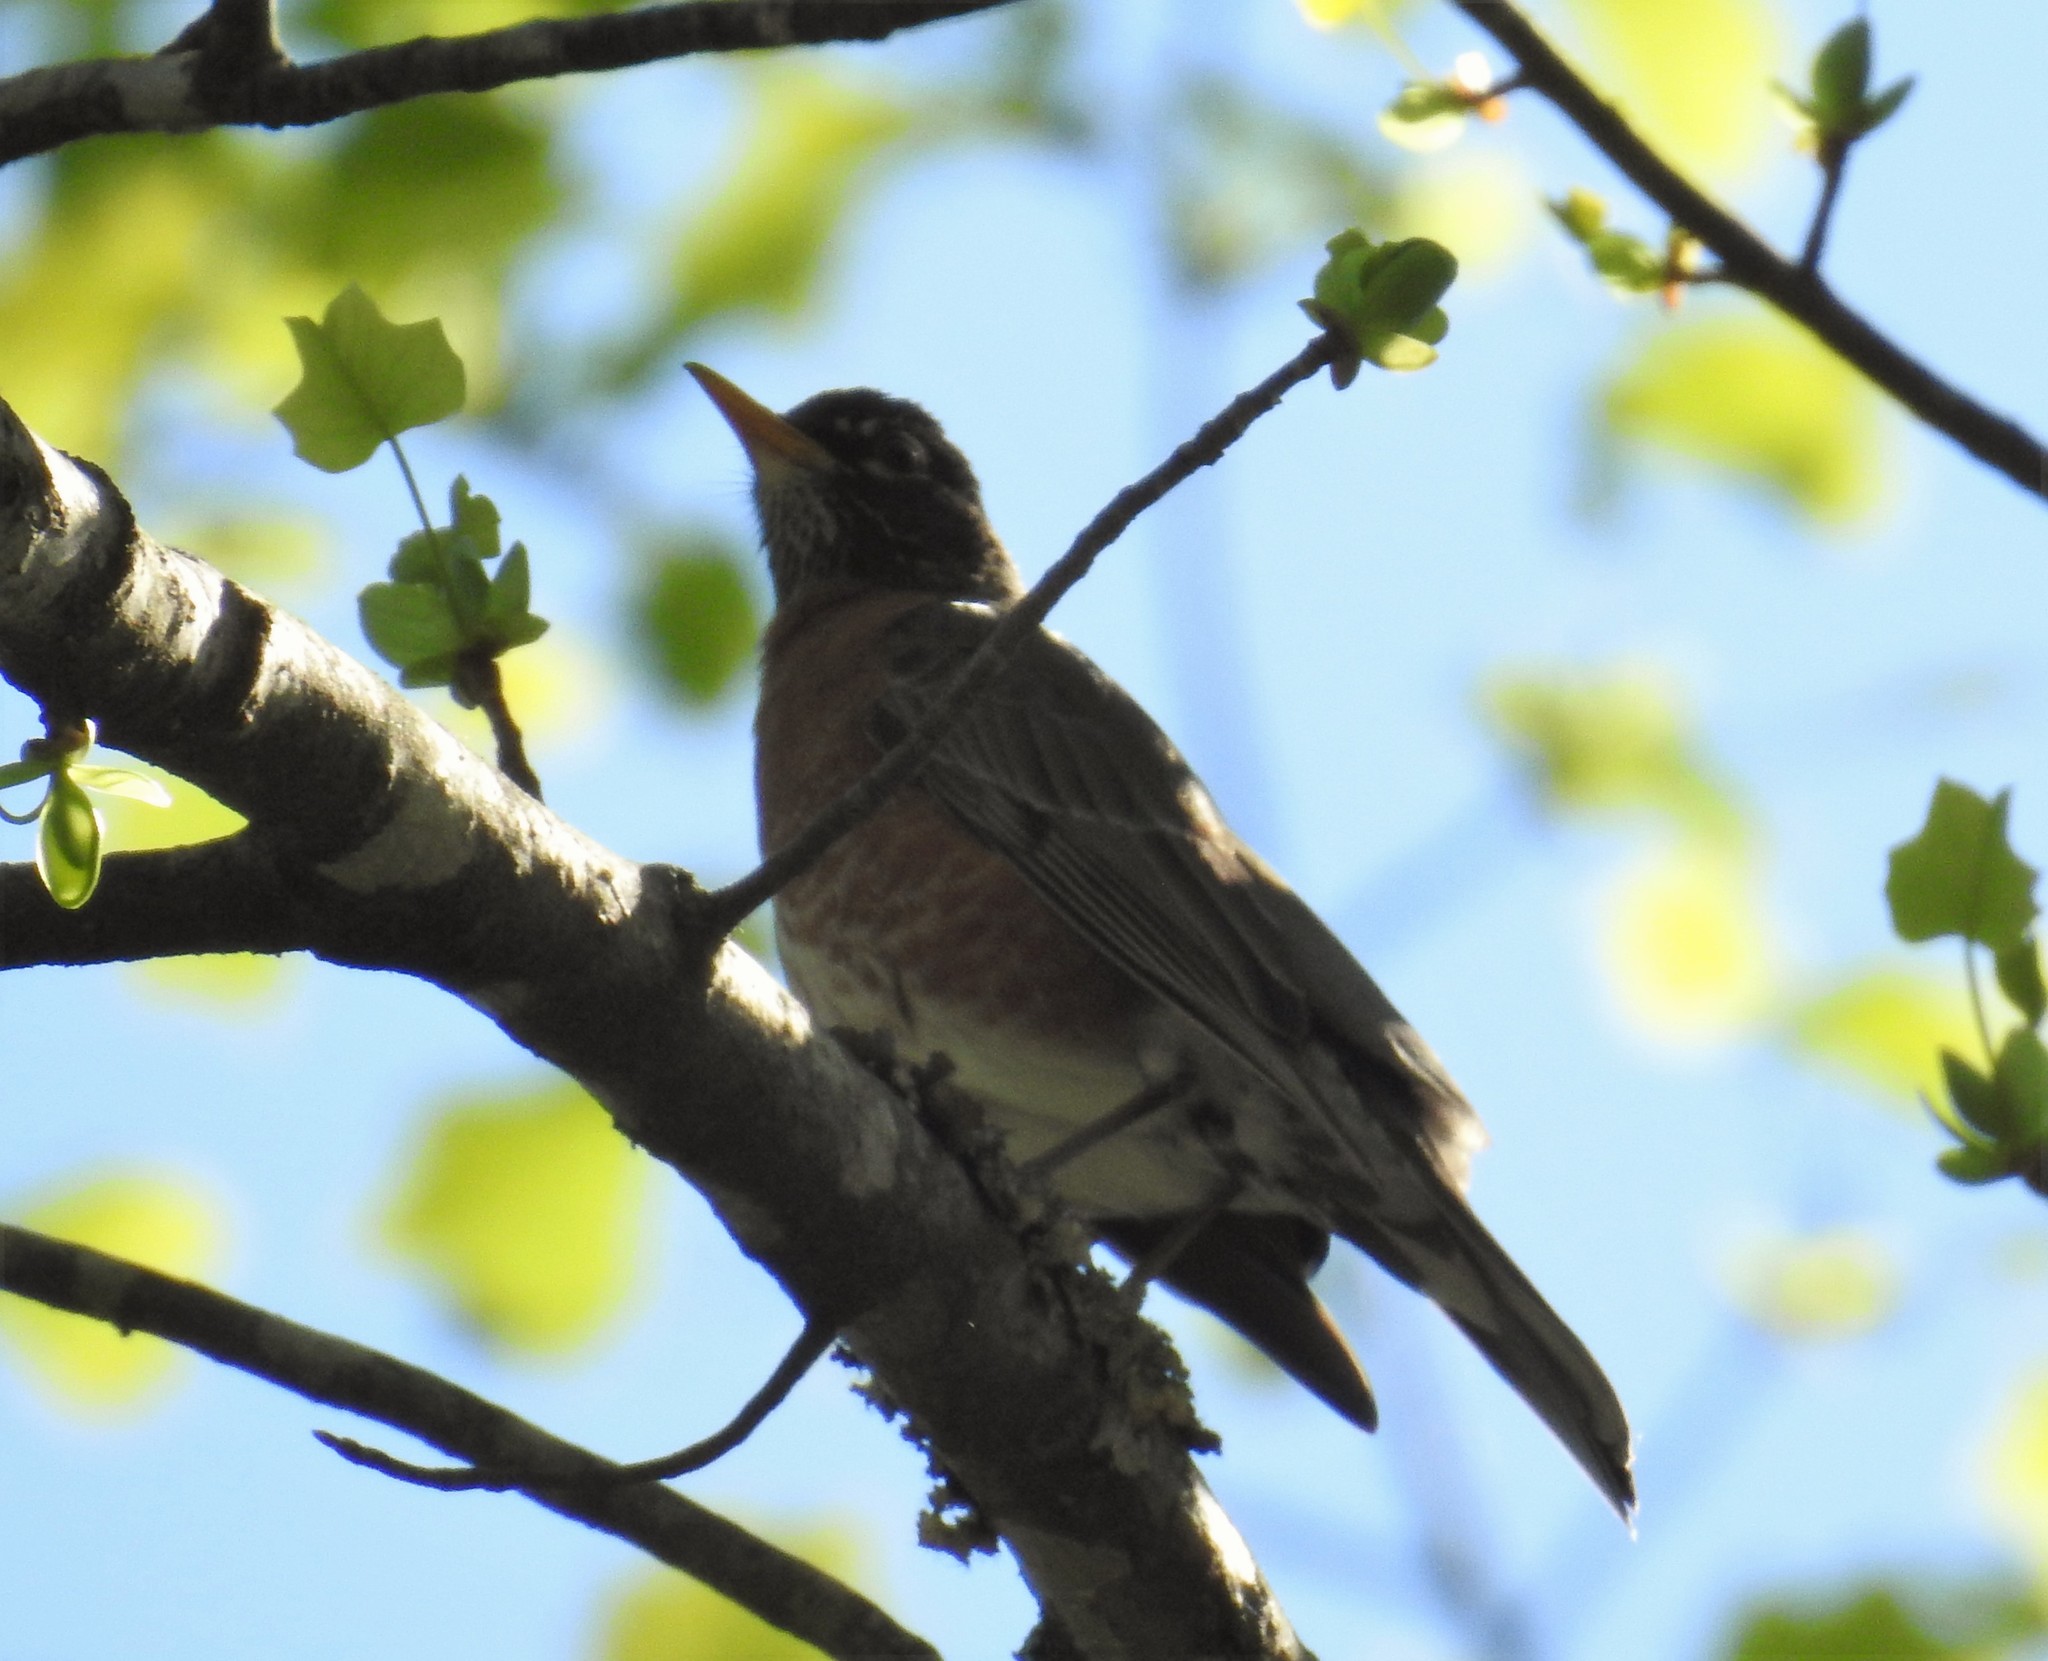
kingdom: Animalia
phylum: Chordata
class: Aves
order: Passeriformes
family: Turdidae
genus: Turdus
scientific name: Turdus migratorius
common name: American robin
